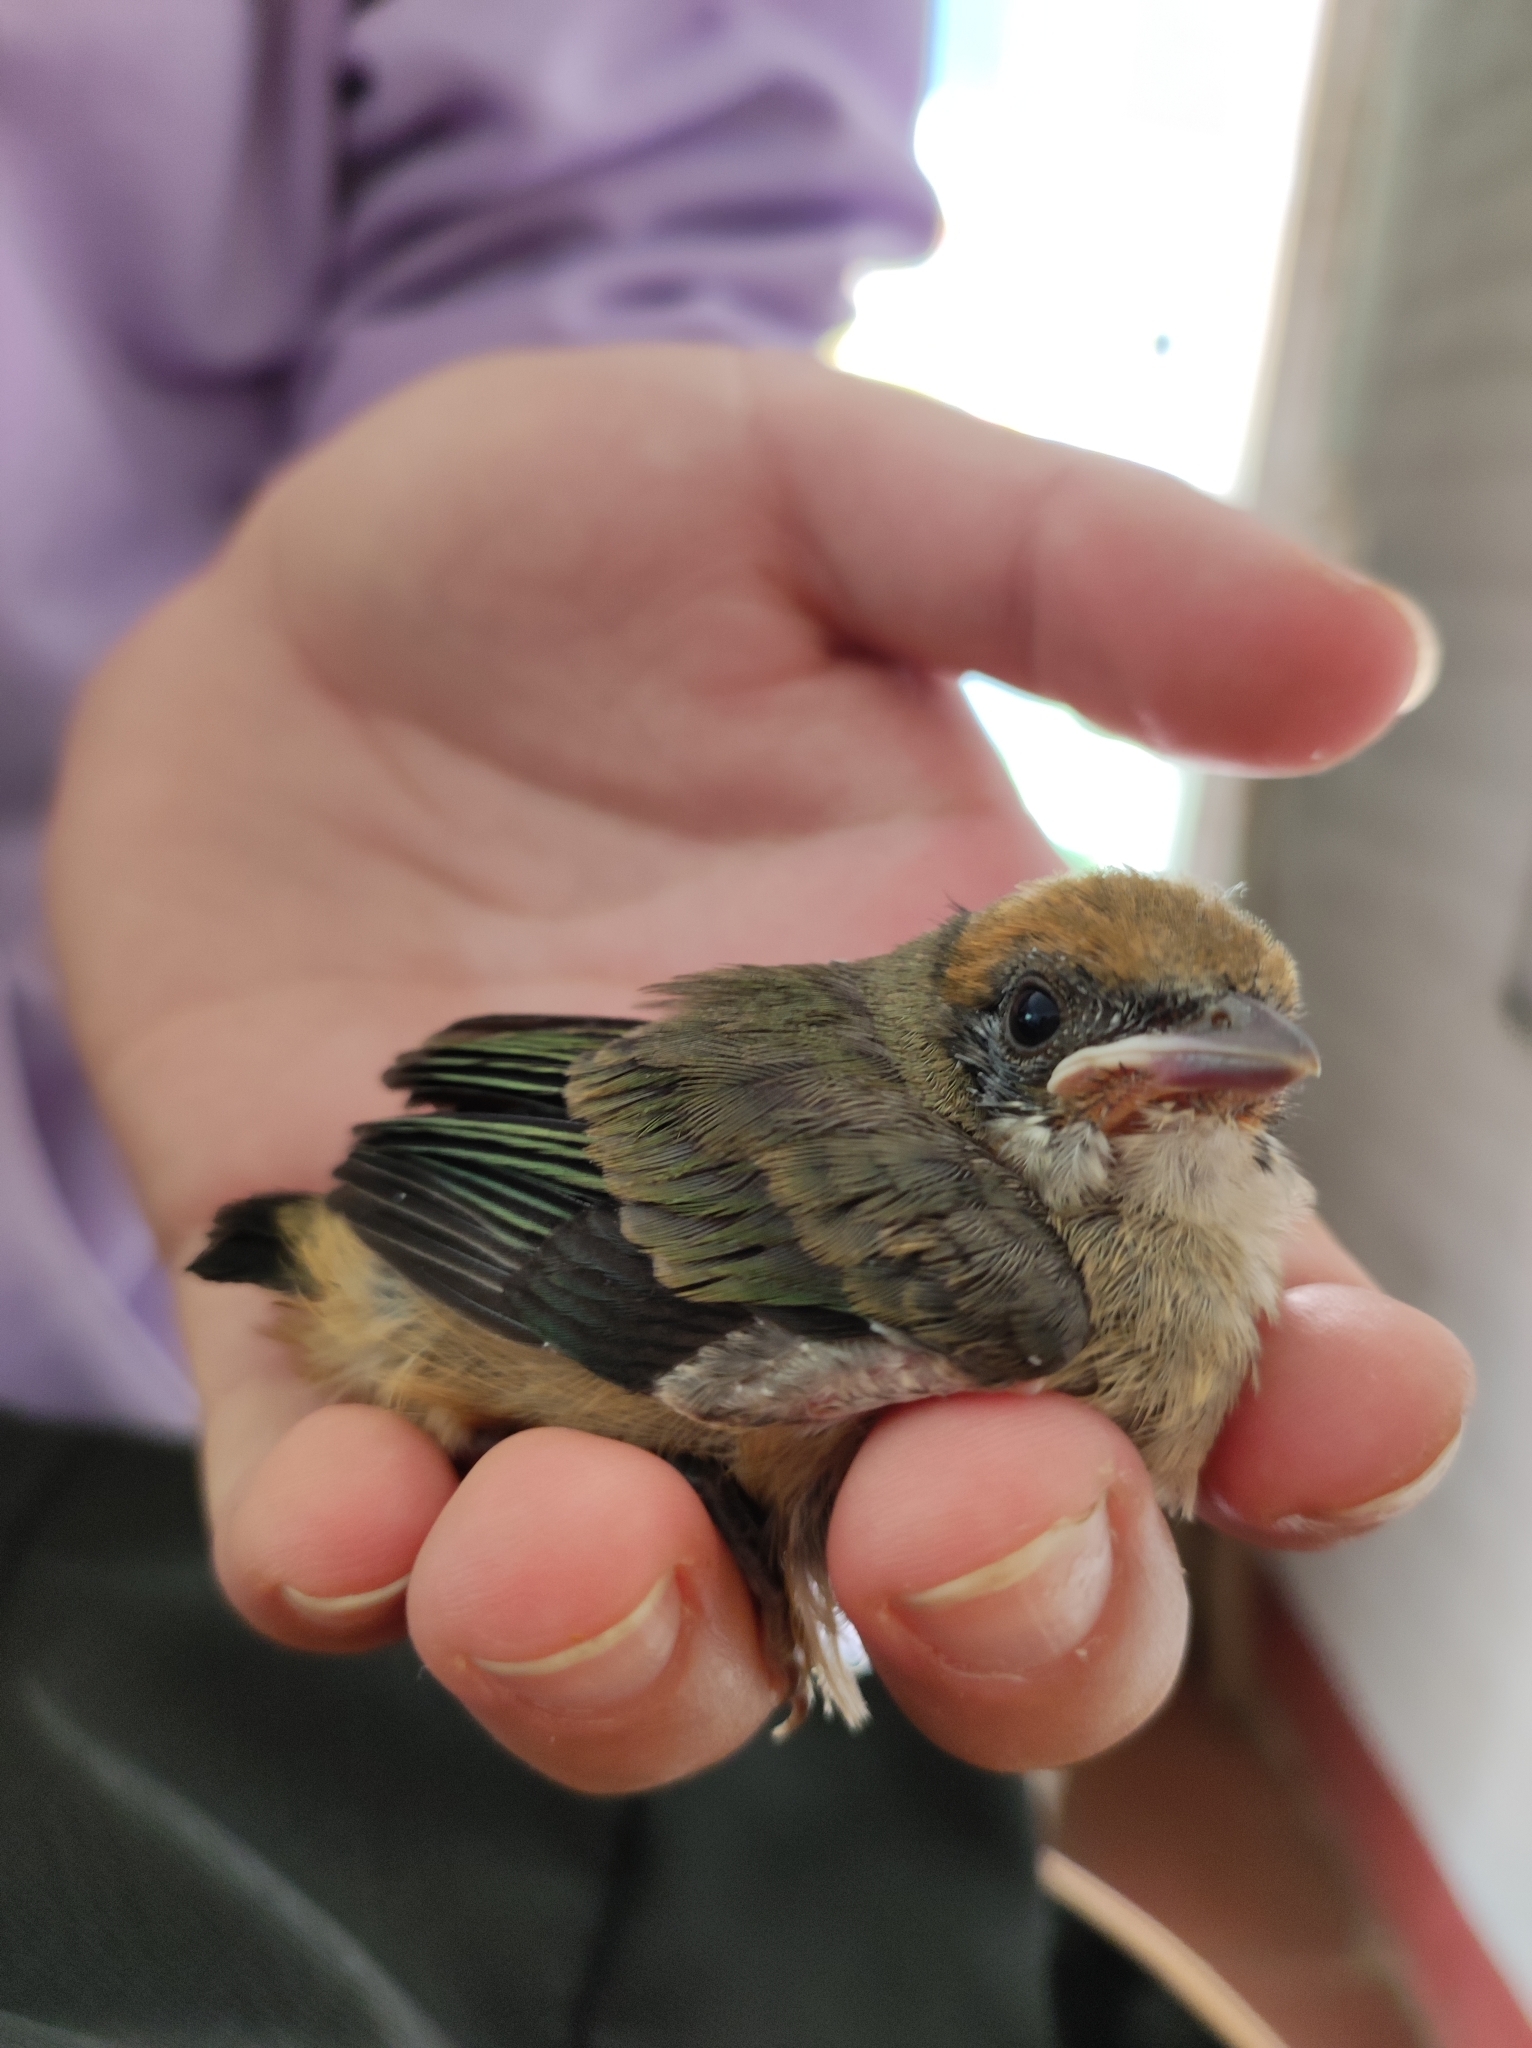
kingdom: Animalia
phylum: Chordata
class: Aves
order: Passeriformes
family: Thraupidae
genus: Stilpnia
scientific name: Stilpnia vitriolina
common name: Scrub tanager
